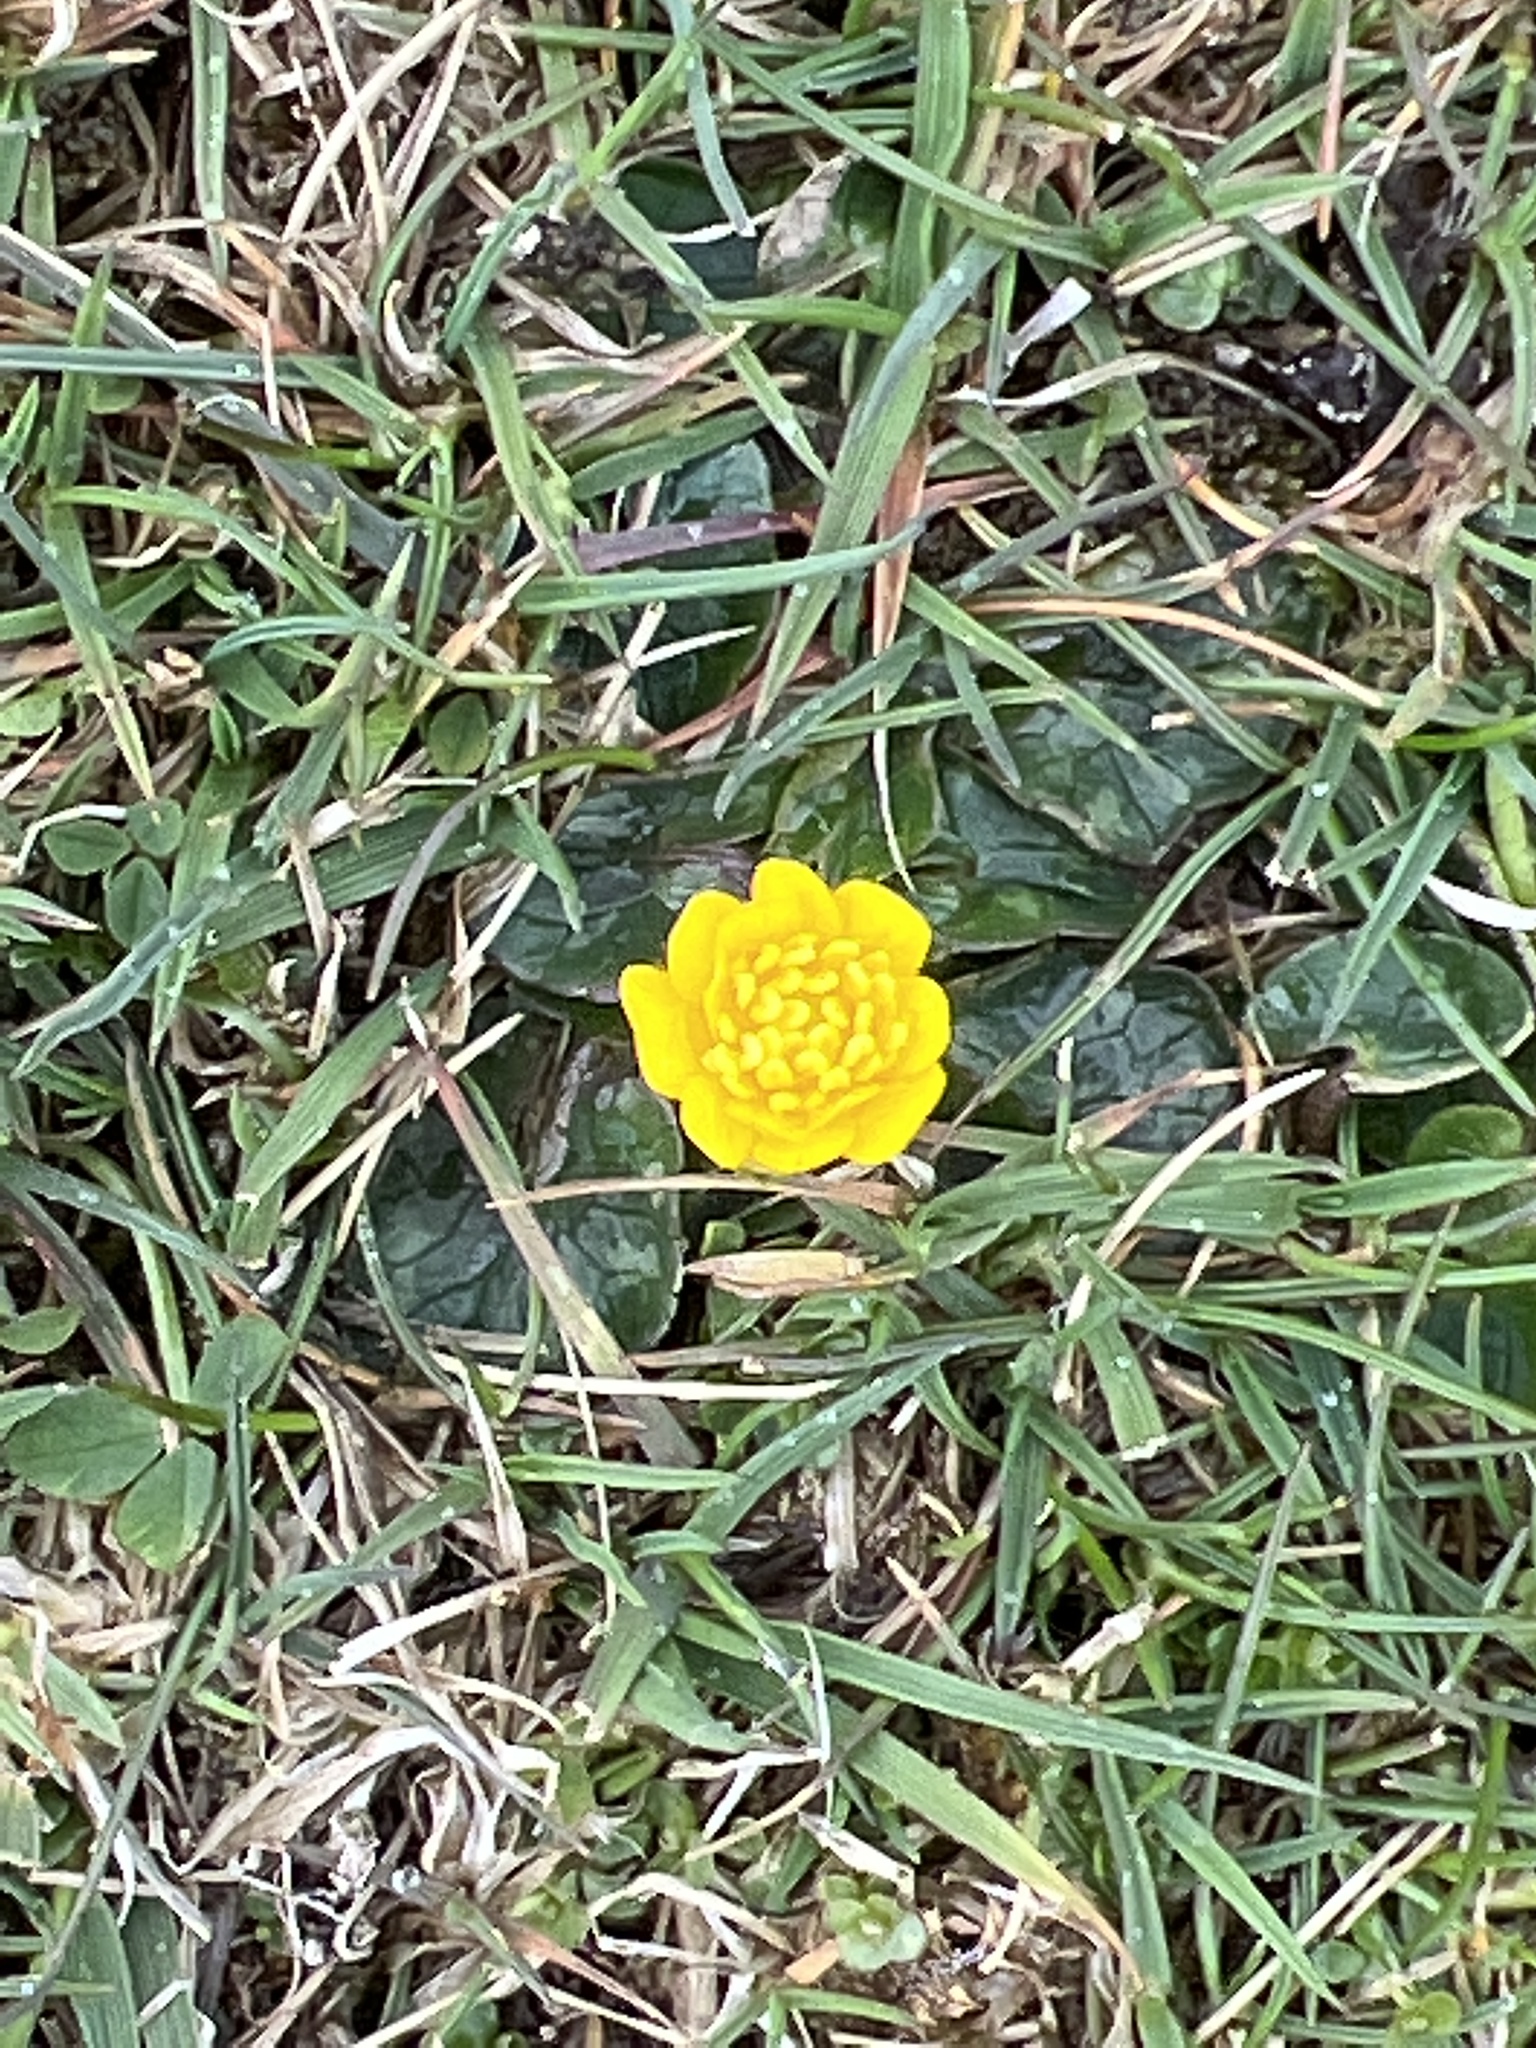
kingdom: Plantae
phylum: Tracheophyta
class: Magnoliopsida
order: Ranunculales
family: Ranunculaceae
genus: Ficaria
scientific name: Ficaria verna
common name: Lesser celandine
